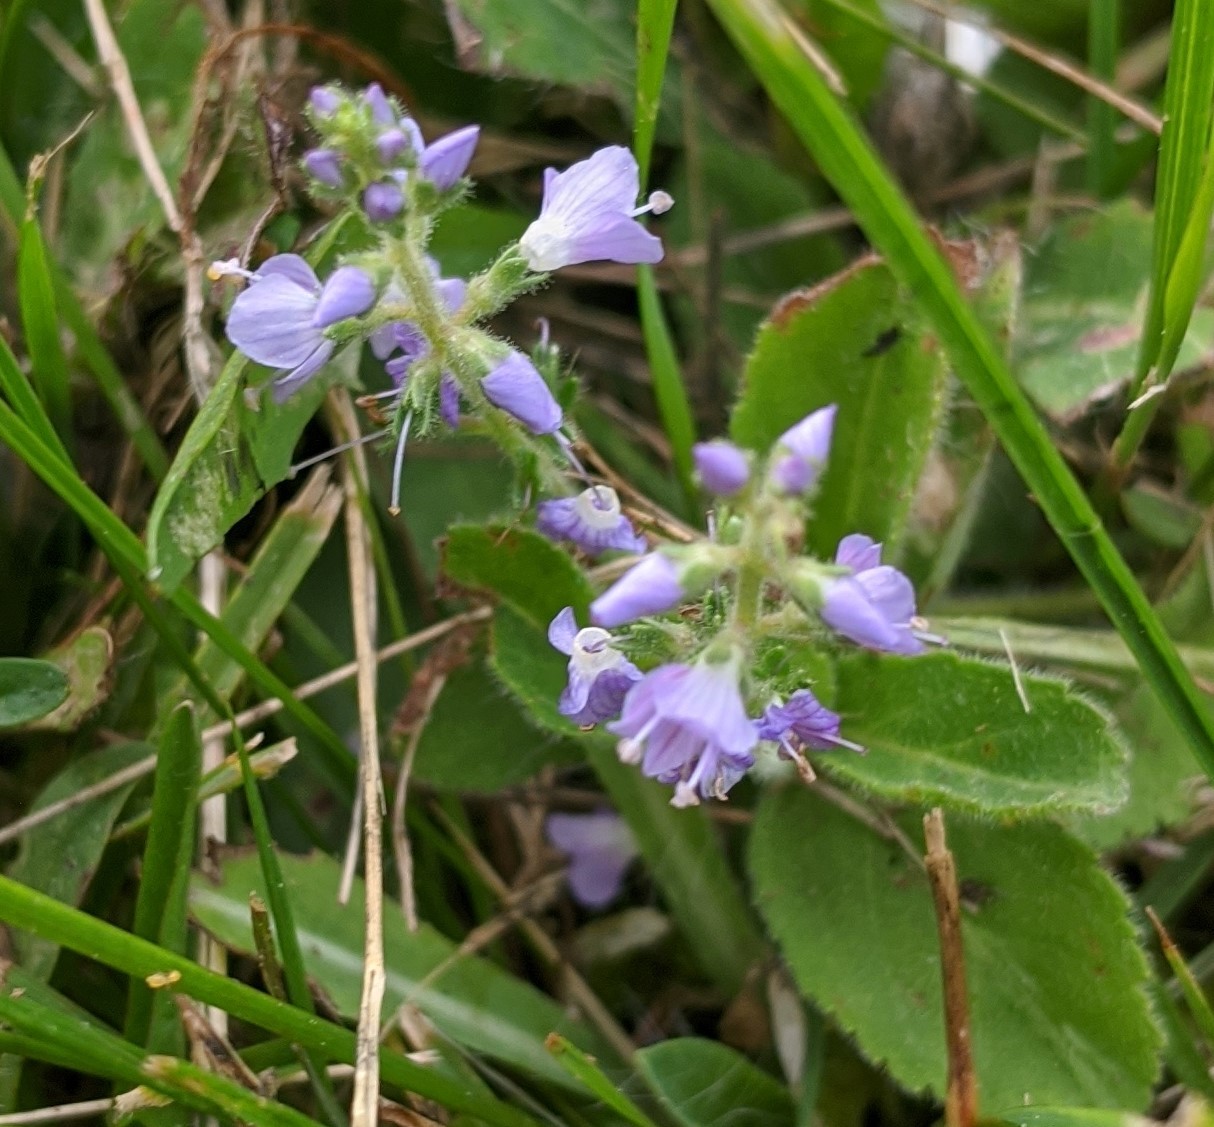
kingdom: Plantae
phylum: Tracheophyta
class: Magnoliopsida
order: Lamiales
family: Plantaginaceae
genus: Veronica
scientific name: Veronica officinalis
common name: Common speedwell
